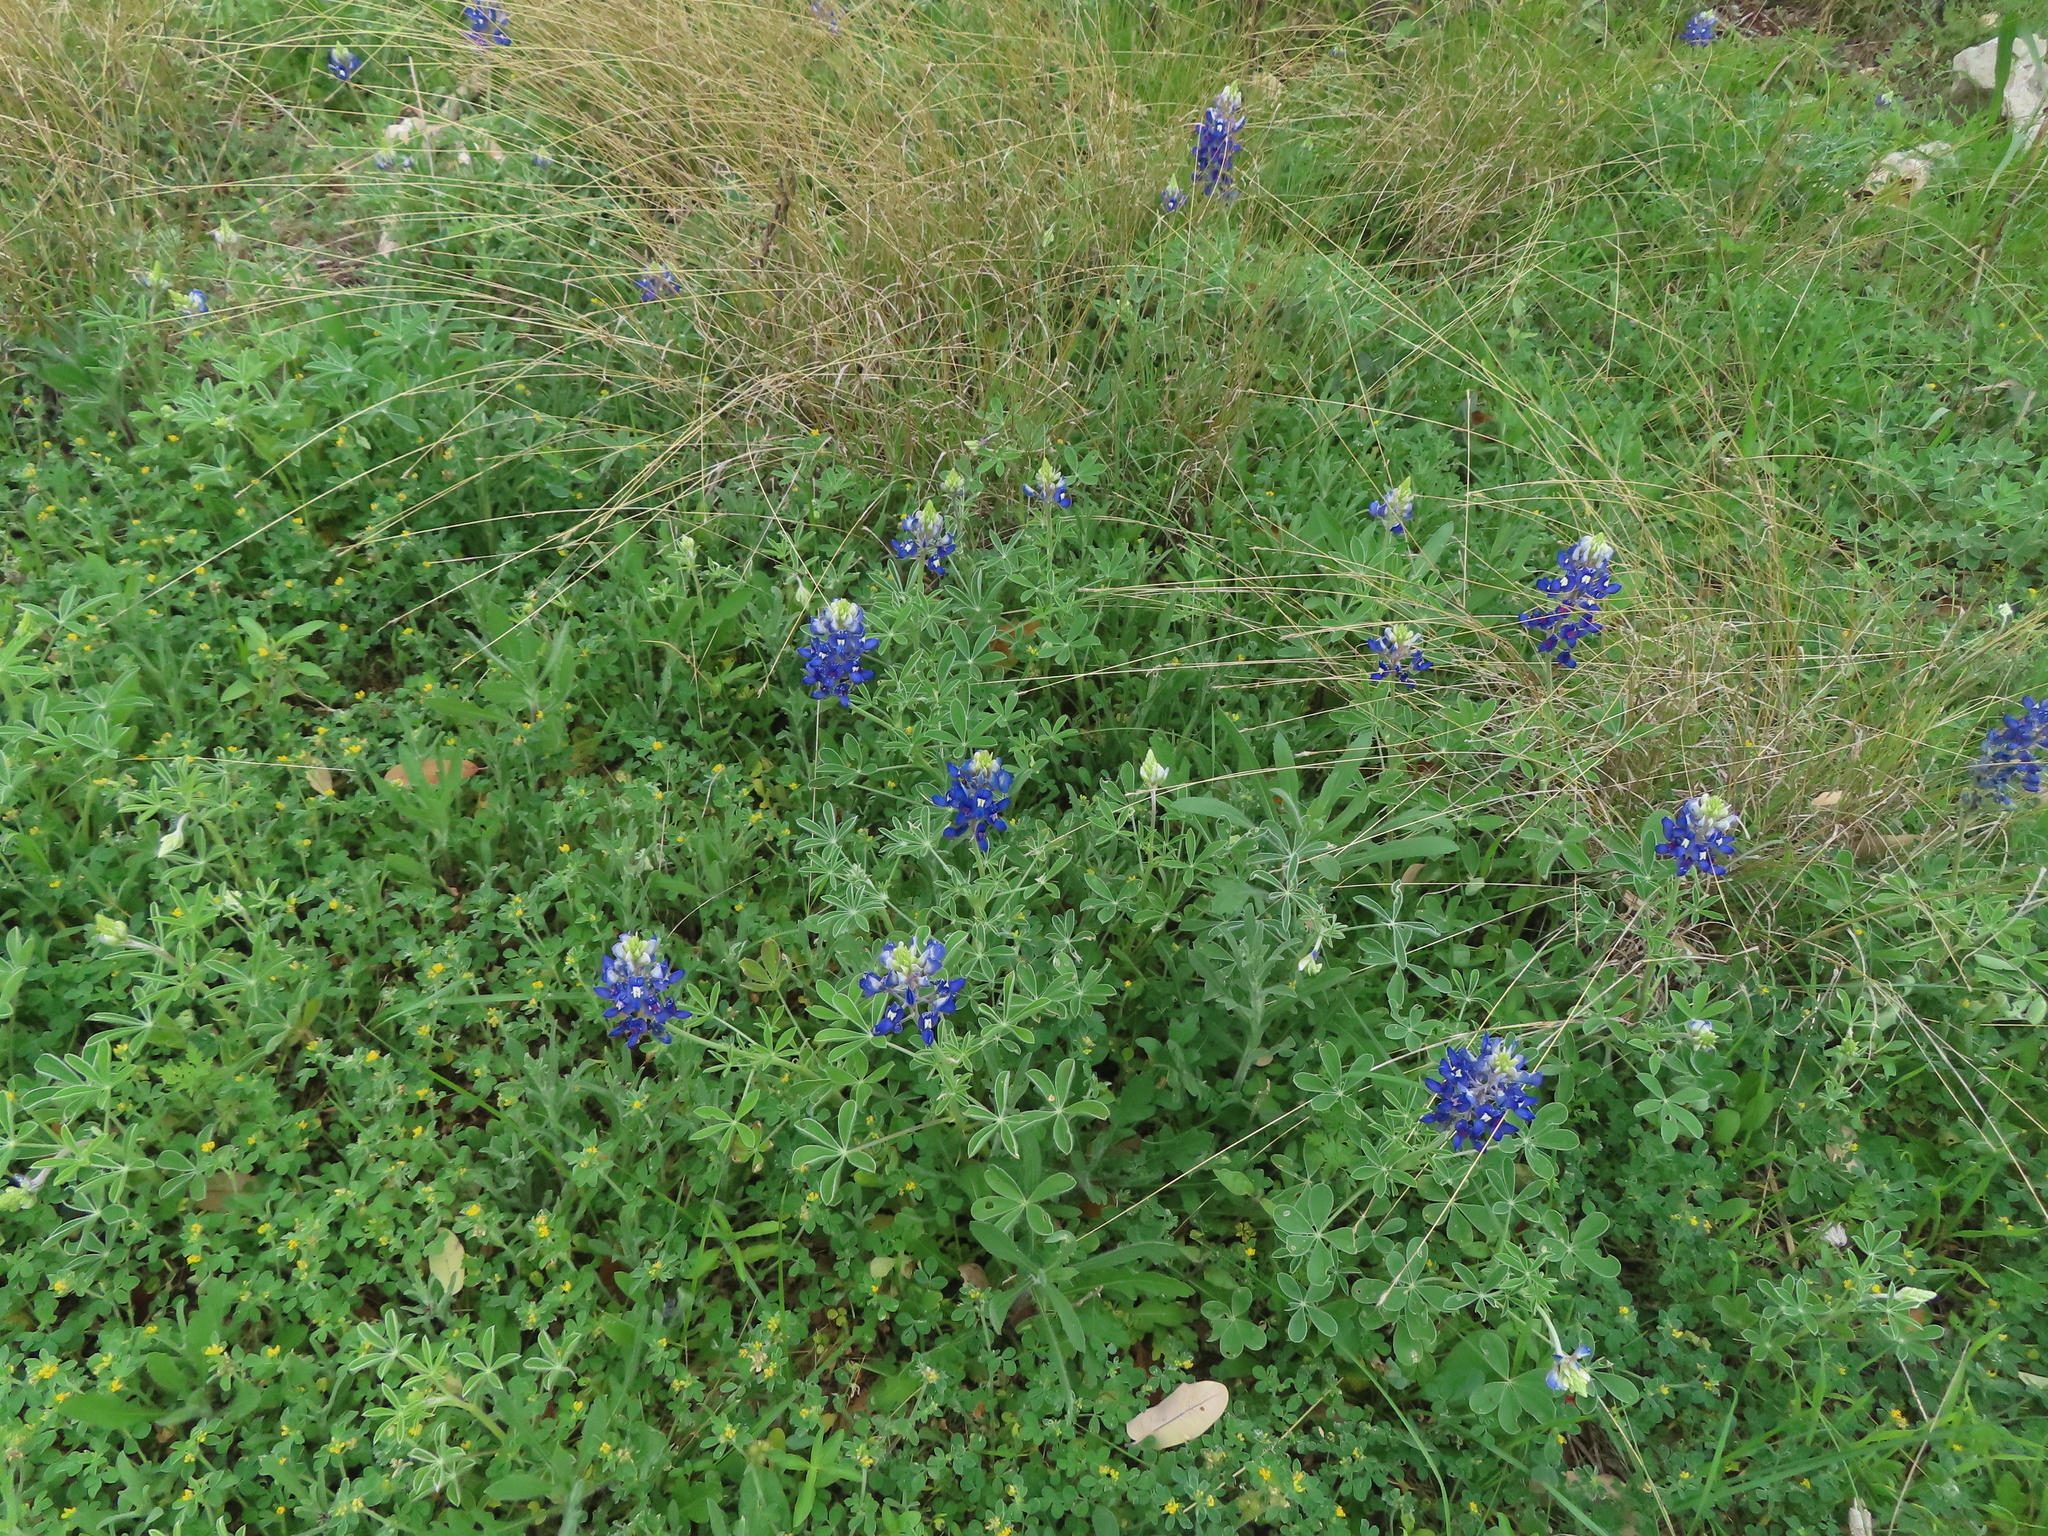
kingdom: Plantae
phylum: Tracheophyta
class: Magnoliopsida
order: Fabales
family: Fabaceae
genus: Lupinus
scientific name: Lupinus texensis
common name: Texas bluebonnet
